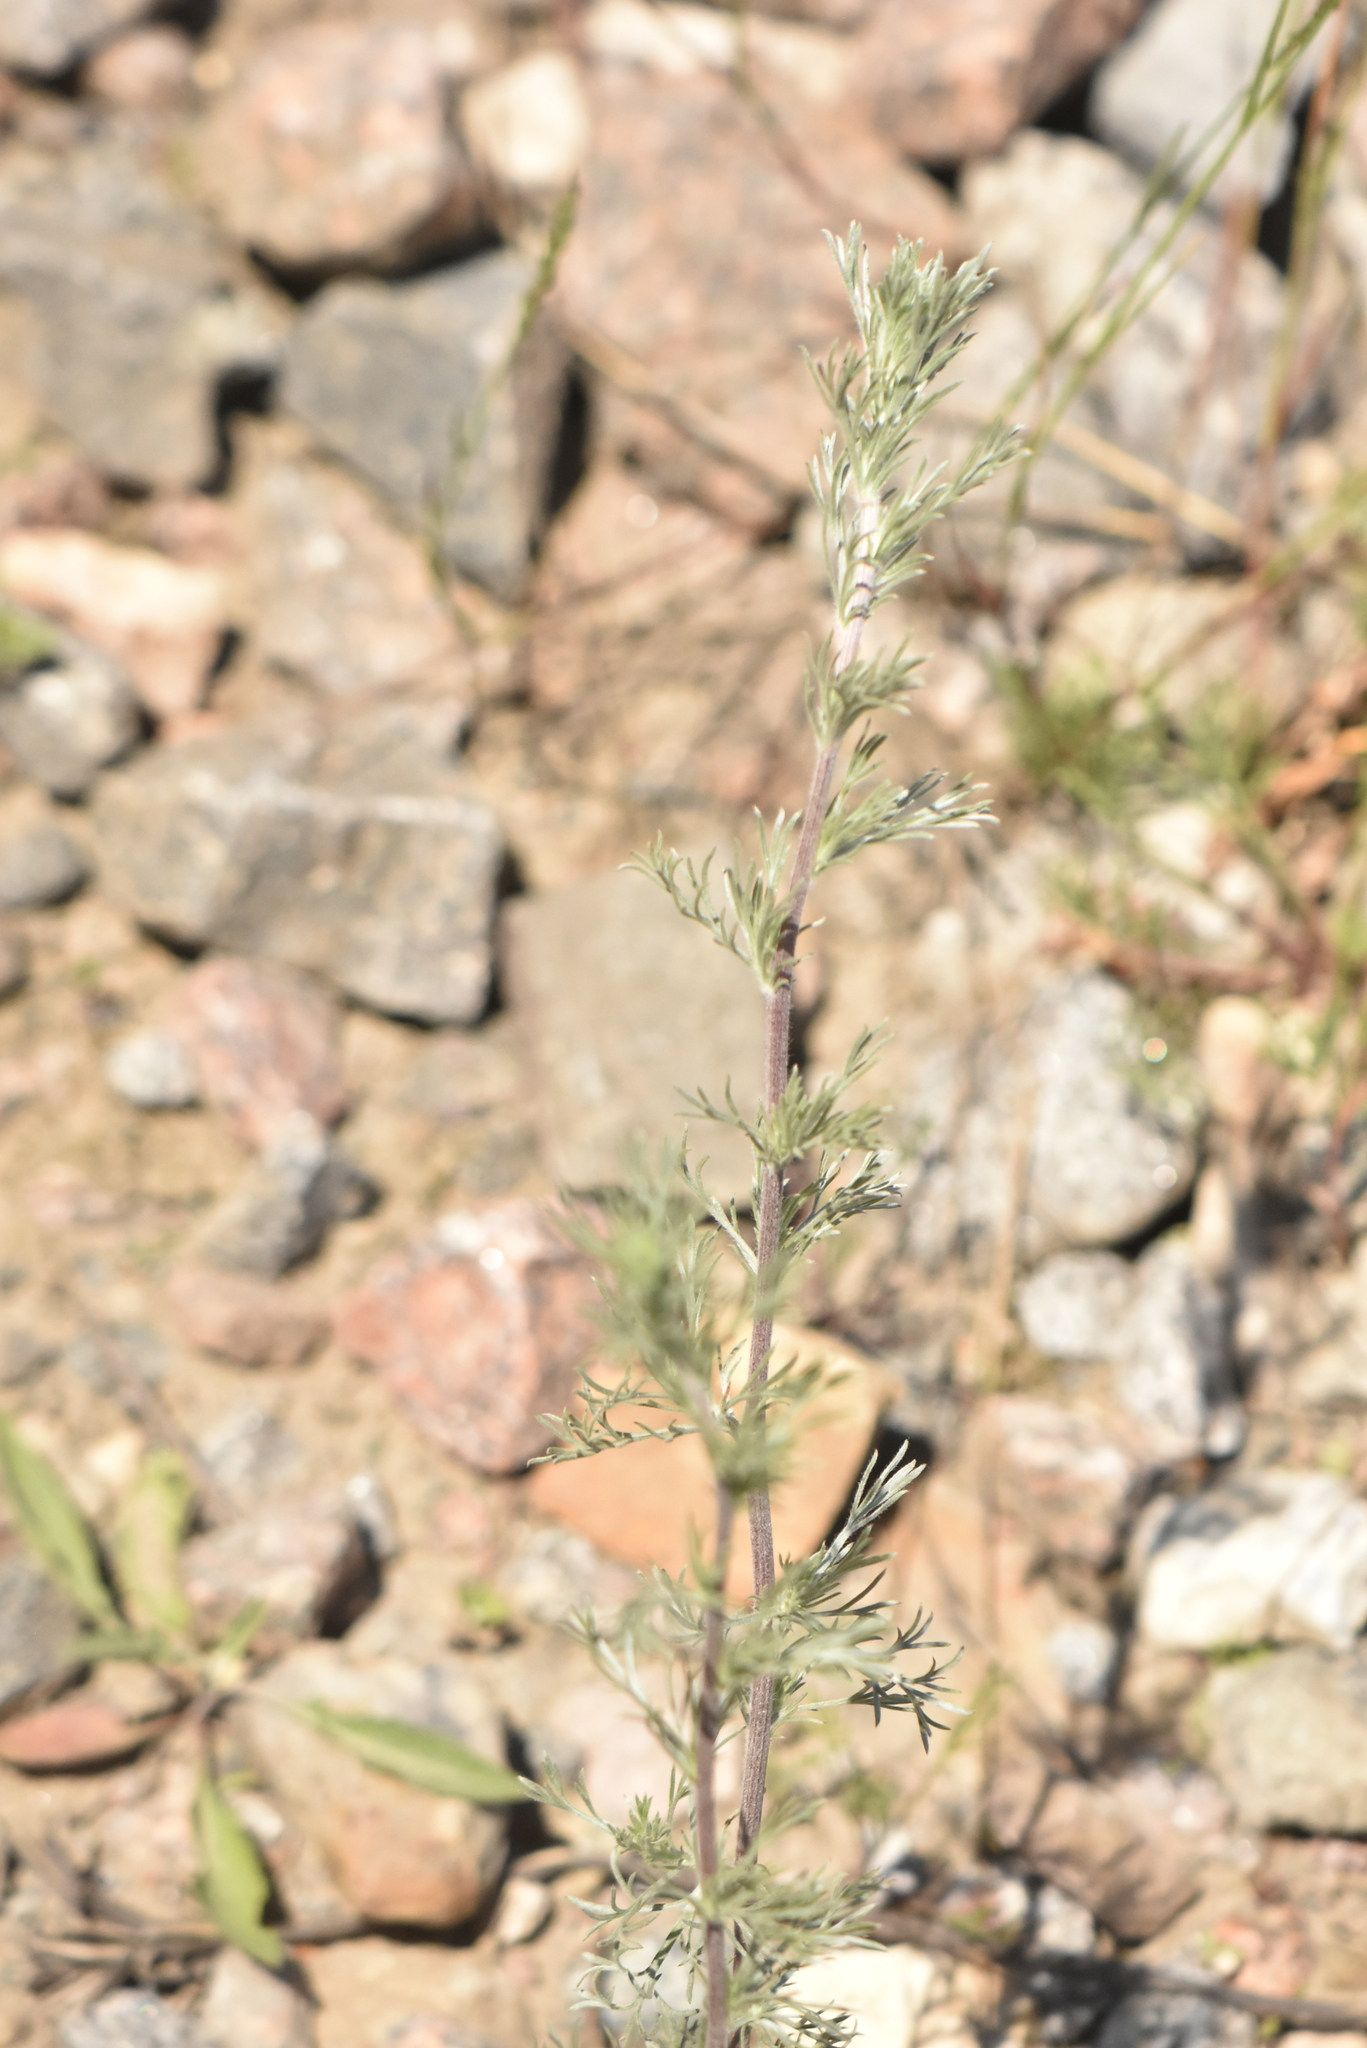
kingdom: Plantae
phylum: Tracheophyta
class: Magnoliopsida
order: Asterales
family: Asteraceae
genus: Artemisia
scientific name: Artemisia campestris
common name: Field wormwood
